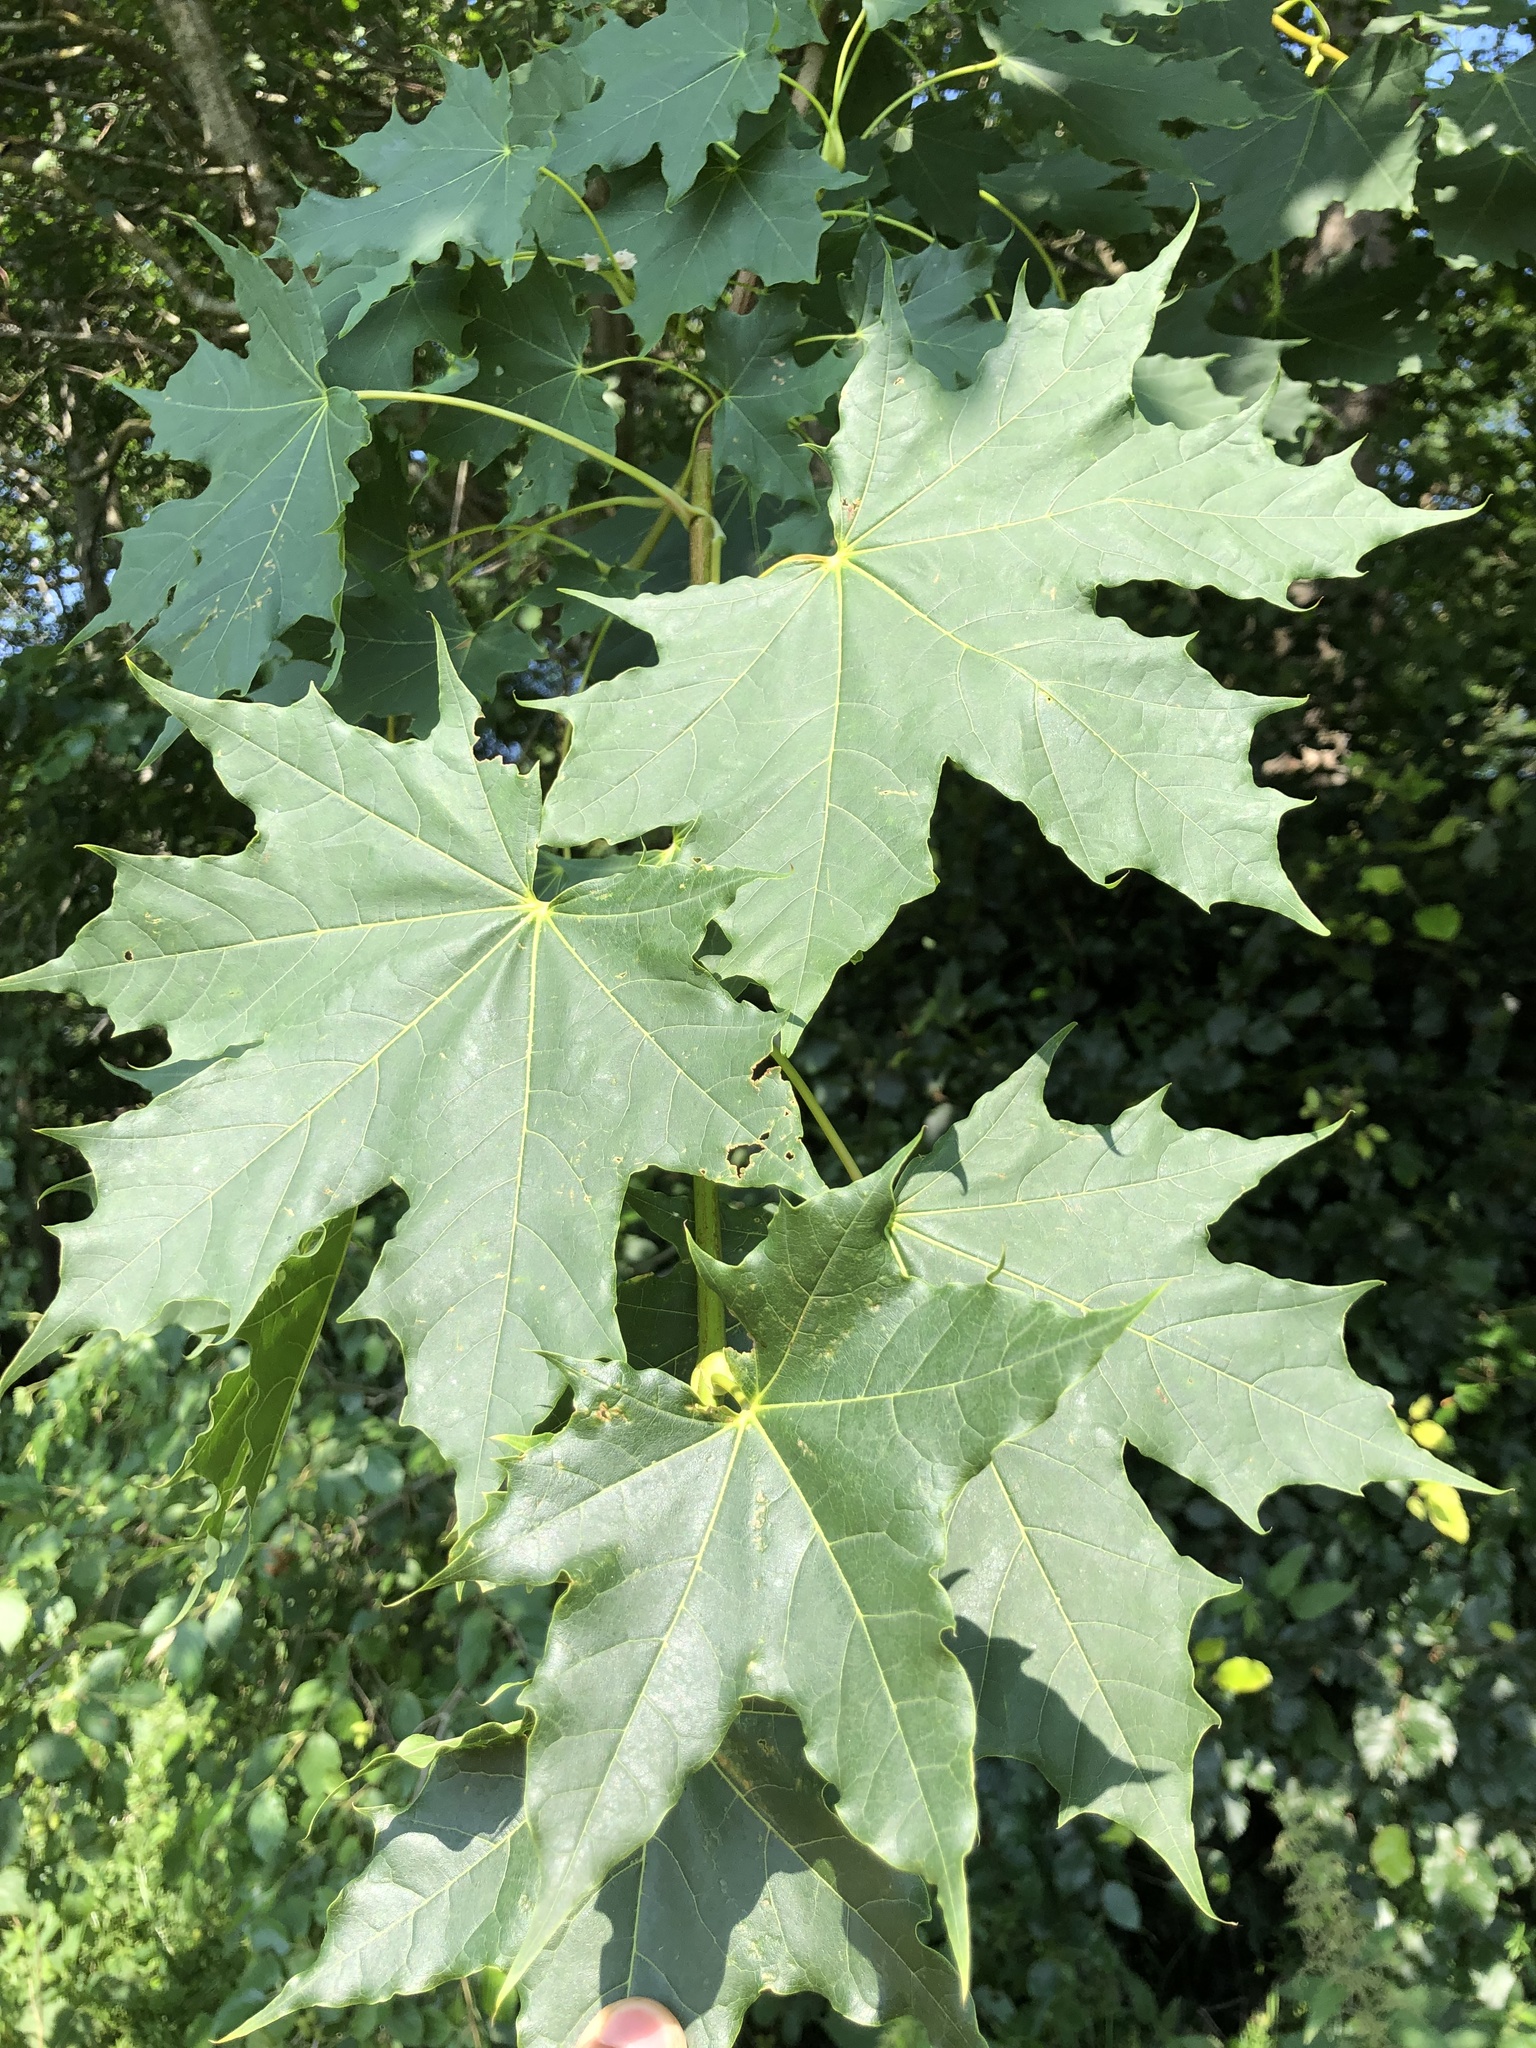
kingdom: Plantae
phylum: Tracheophyta
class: Magnoliopsida
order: Sapindales
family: Sapindaceae
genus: Acer
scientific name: Acer platanoides
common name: Norway maple
